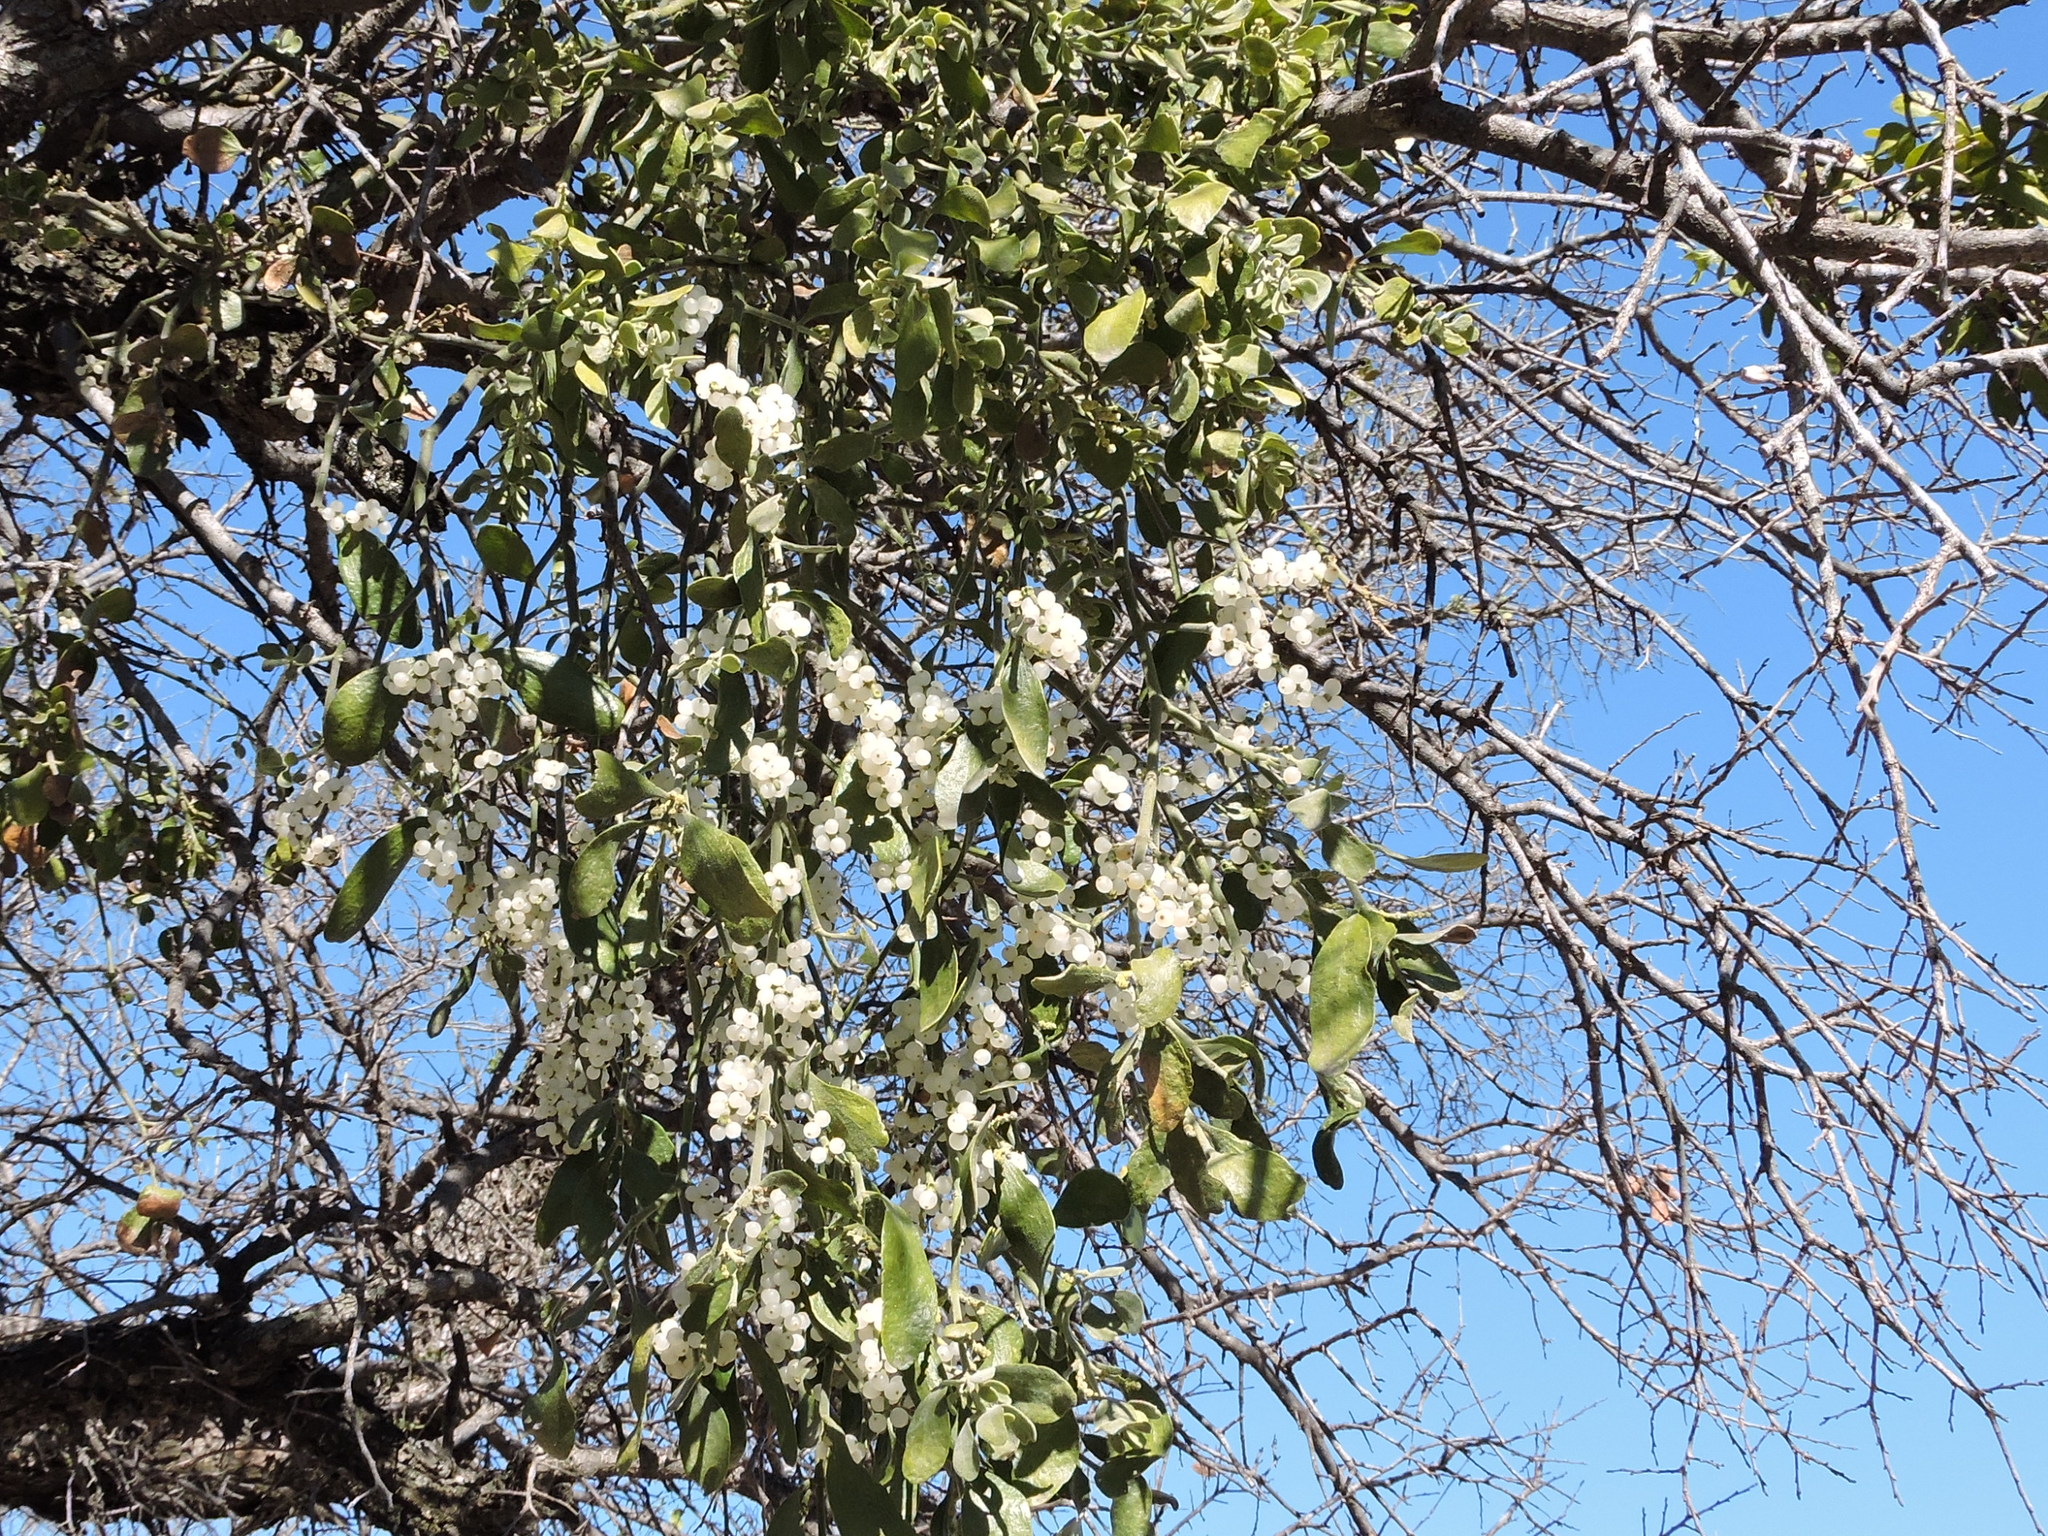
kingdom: Plantae
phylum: Tracheophyta
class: Magnoliopsida
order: Santalales
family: Viscaceae
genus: Phoradendron
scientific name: Phoradendron leucarpum
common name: Pacific mistletoe
